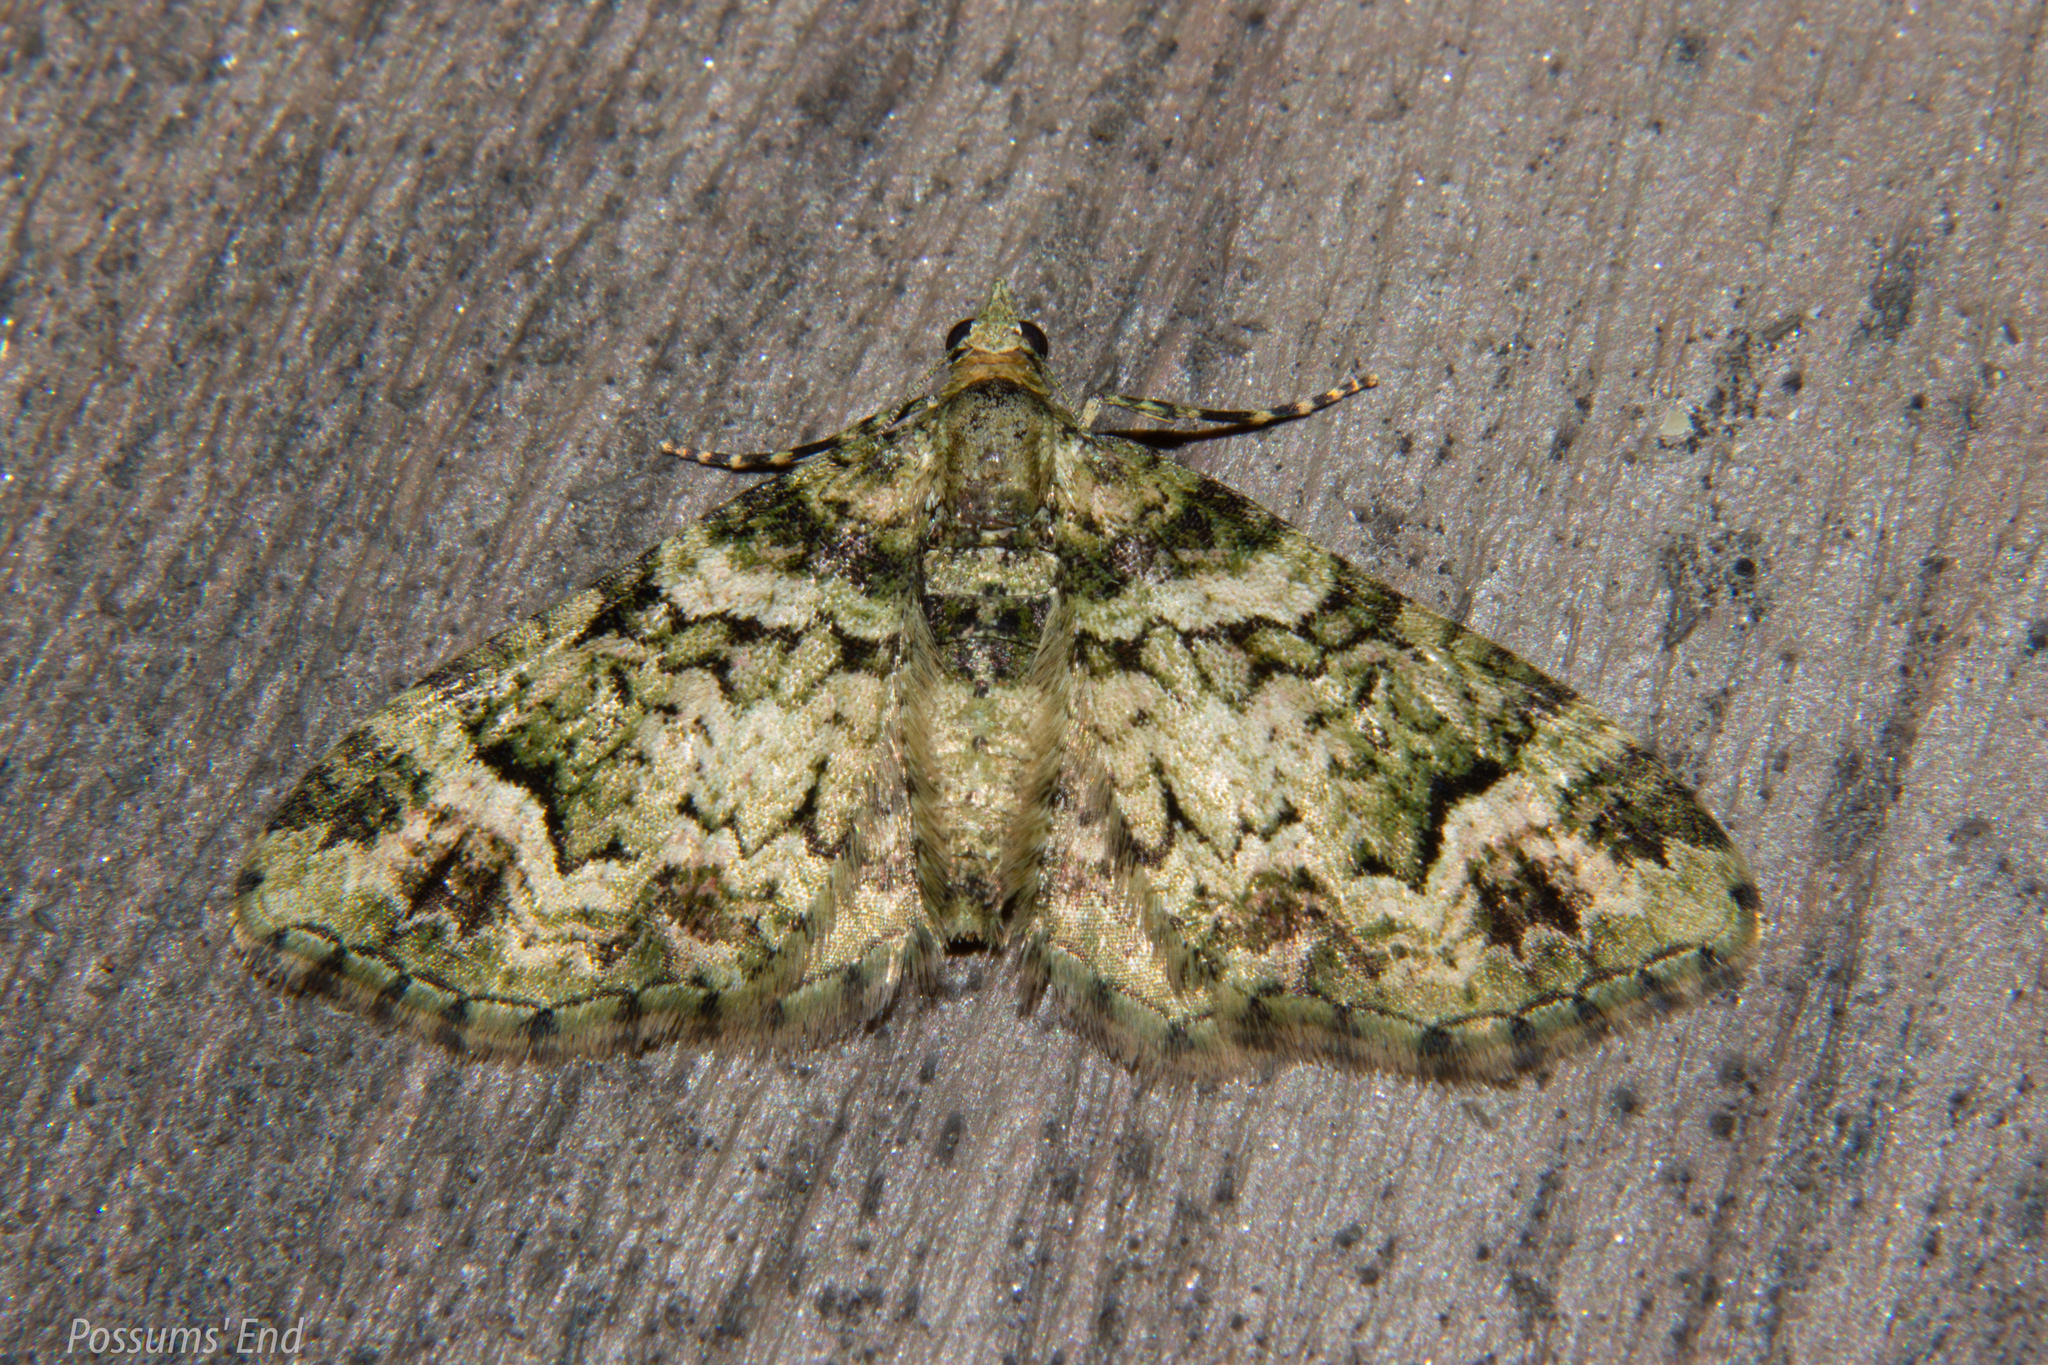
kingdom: Animalia
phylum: Arthropoda
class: Insecta
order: Lepidoptera
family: Geometridae
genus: Pasiphila
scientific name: Pasiphila muscosata
